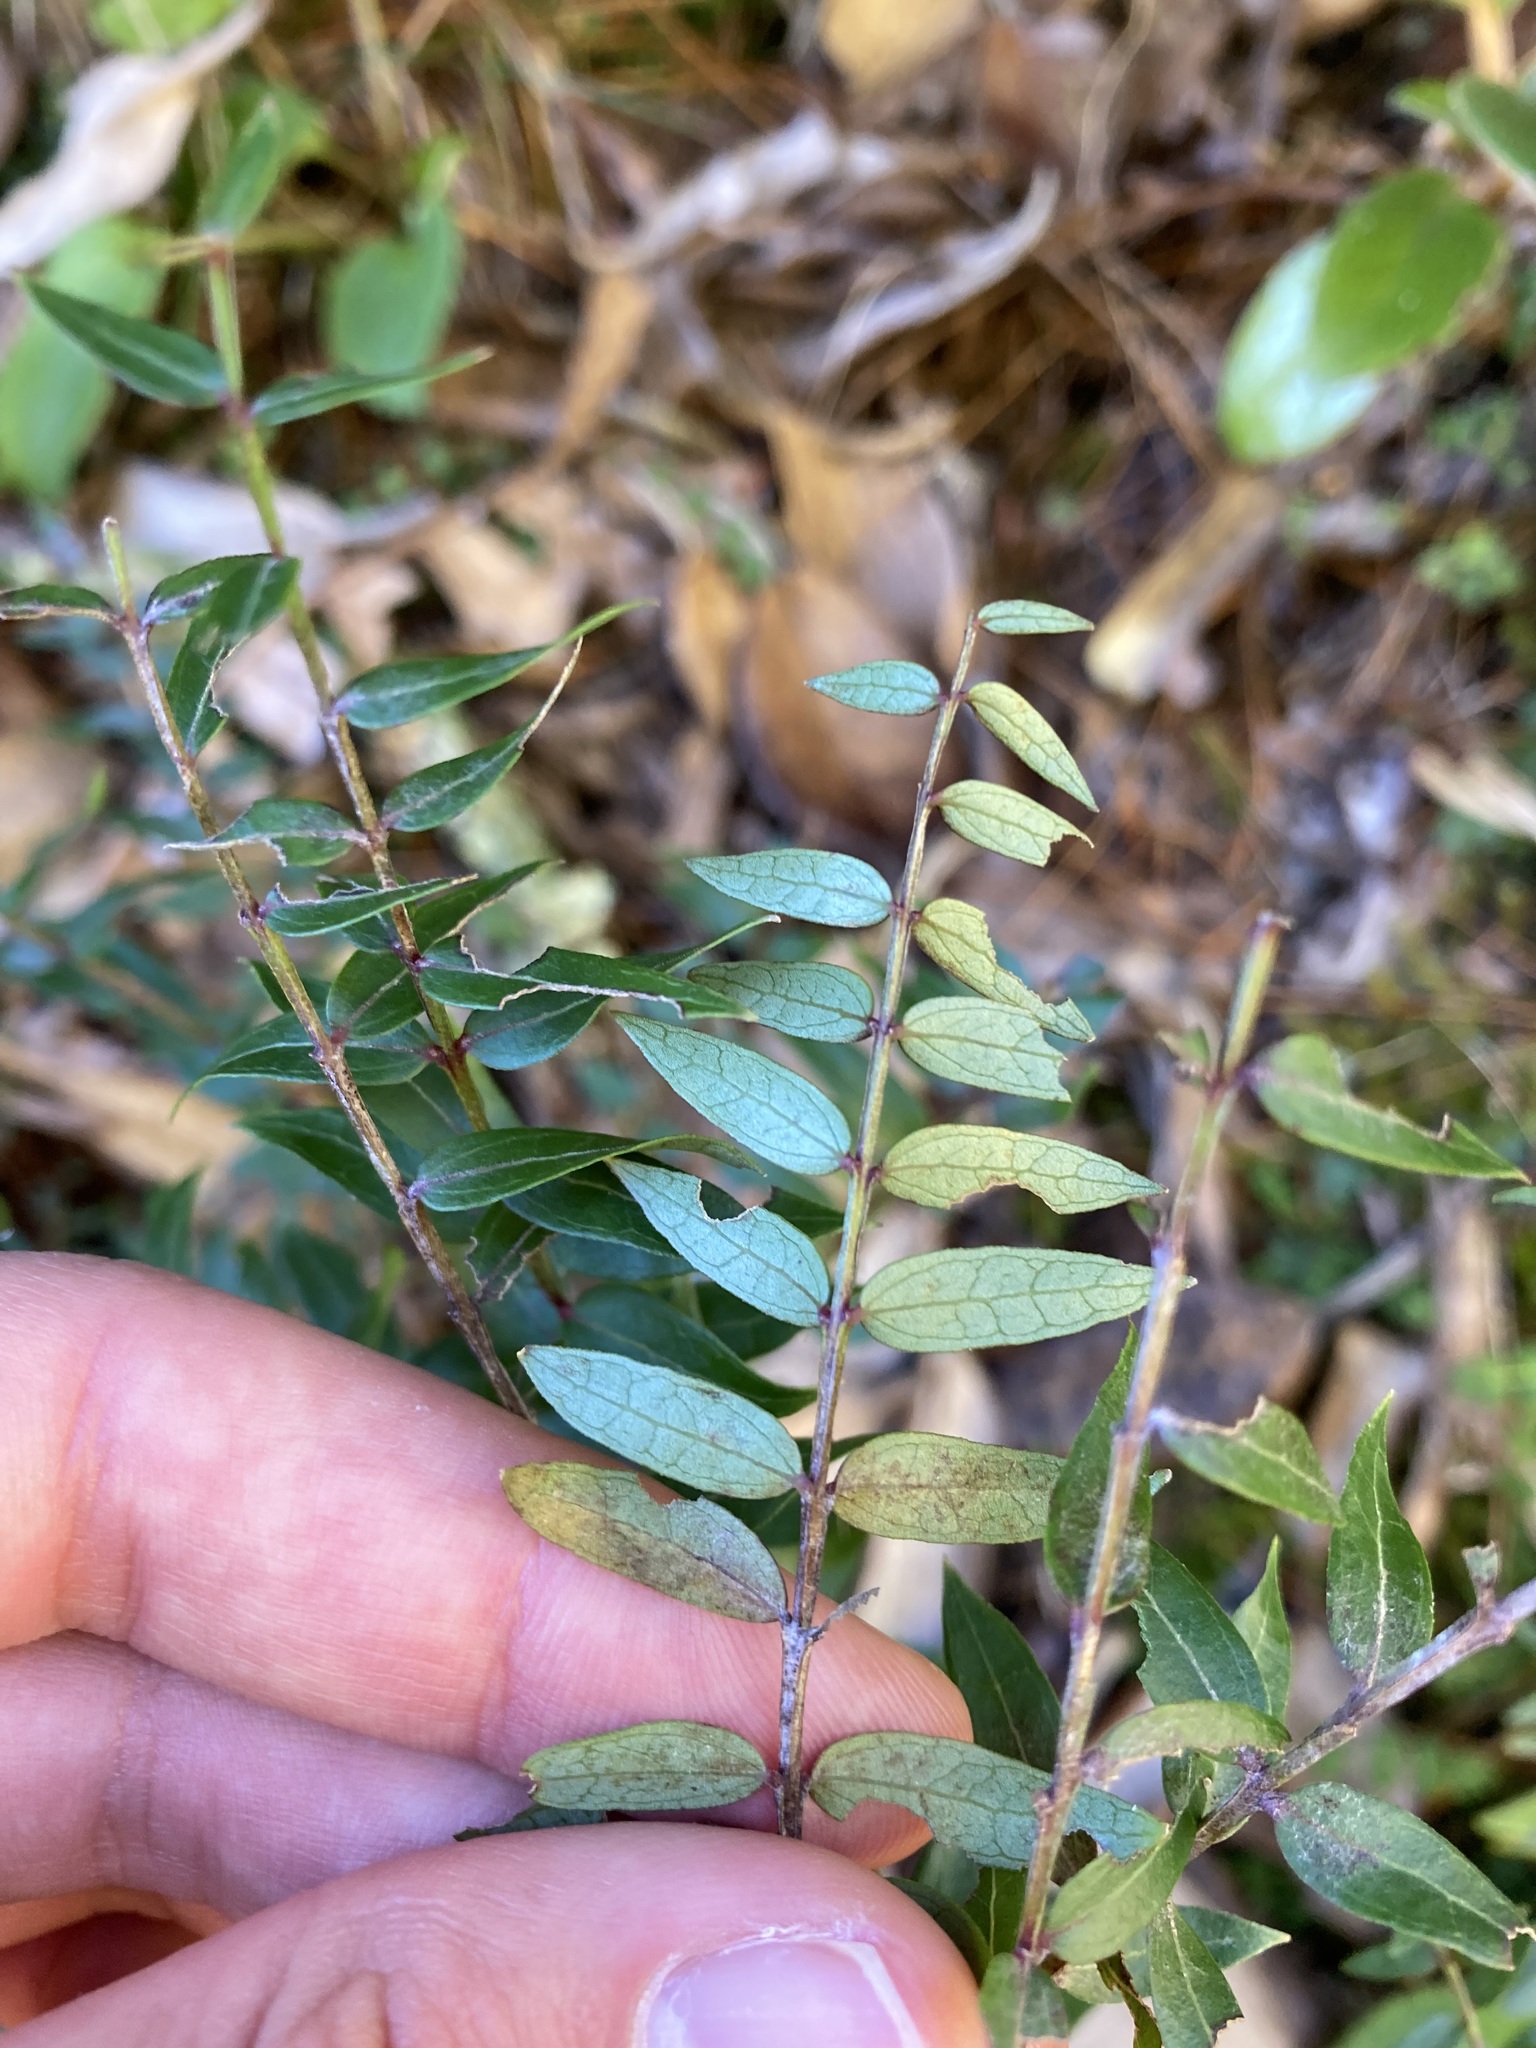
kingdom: Plantae
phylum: Tracheophyta
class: Magnoliopsida
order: Cucurbitales
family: Coriariaceae
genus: Coriaria
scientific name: Coriaria pteridoides
